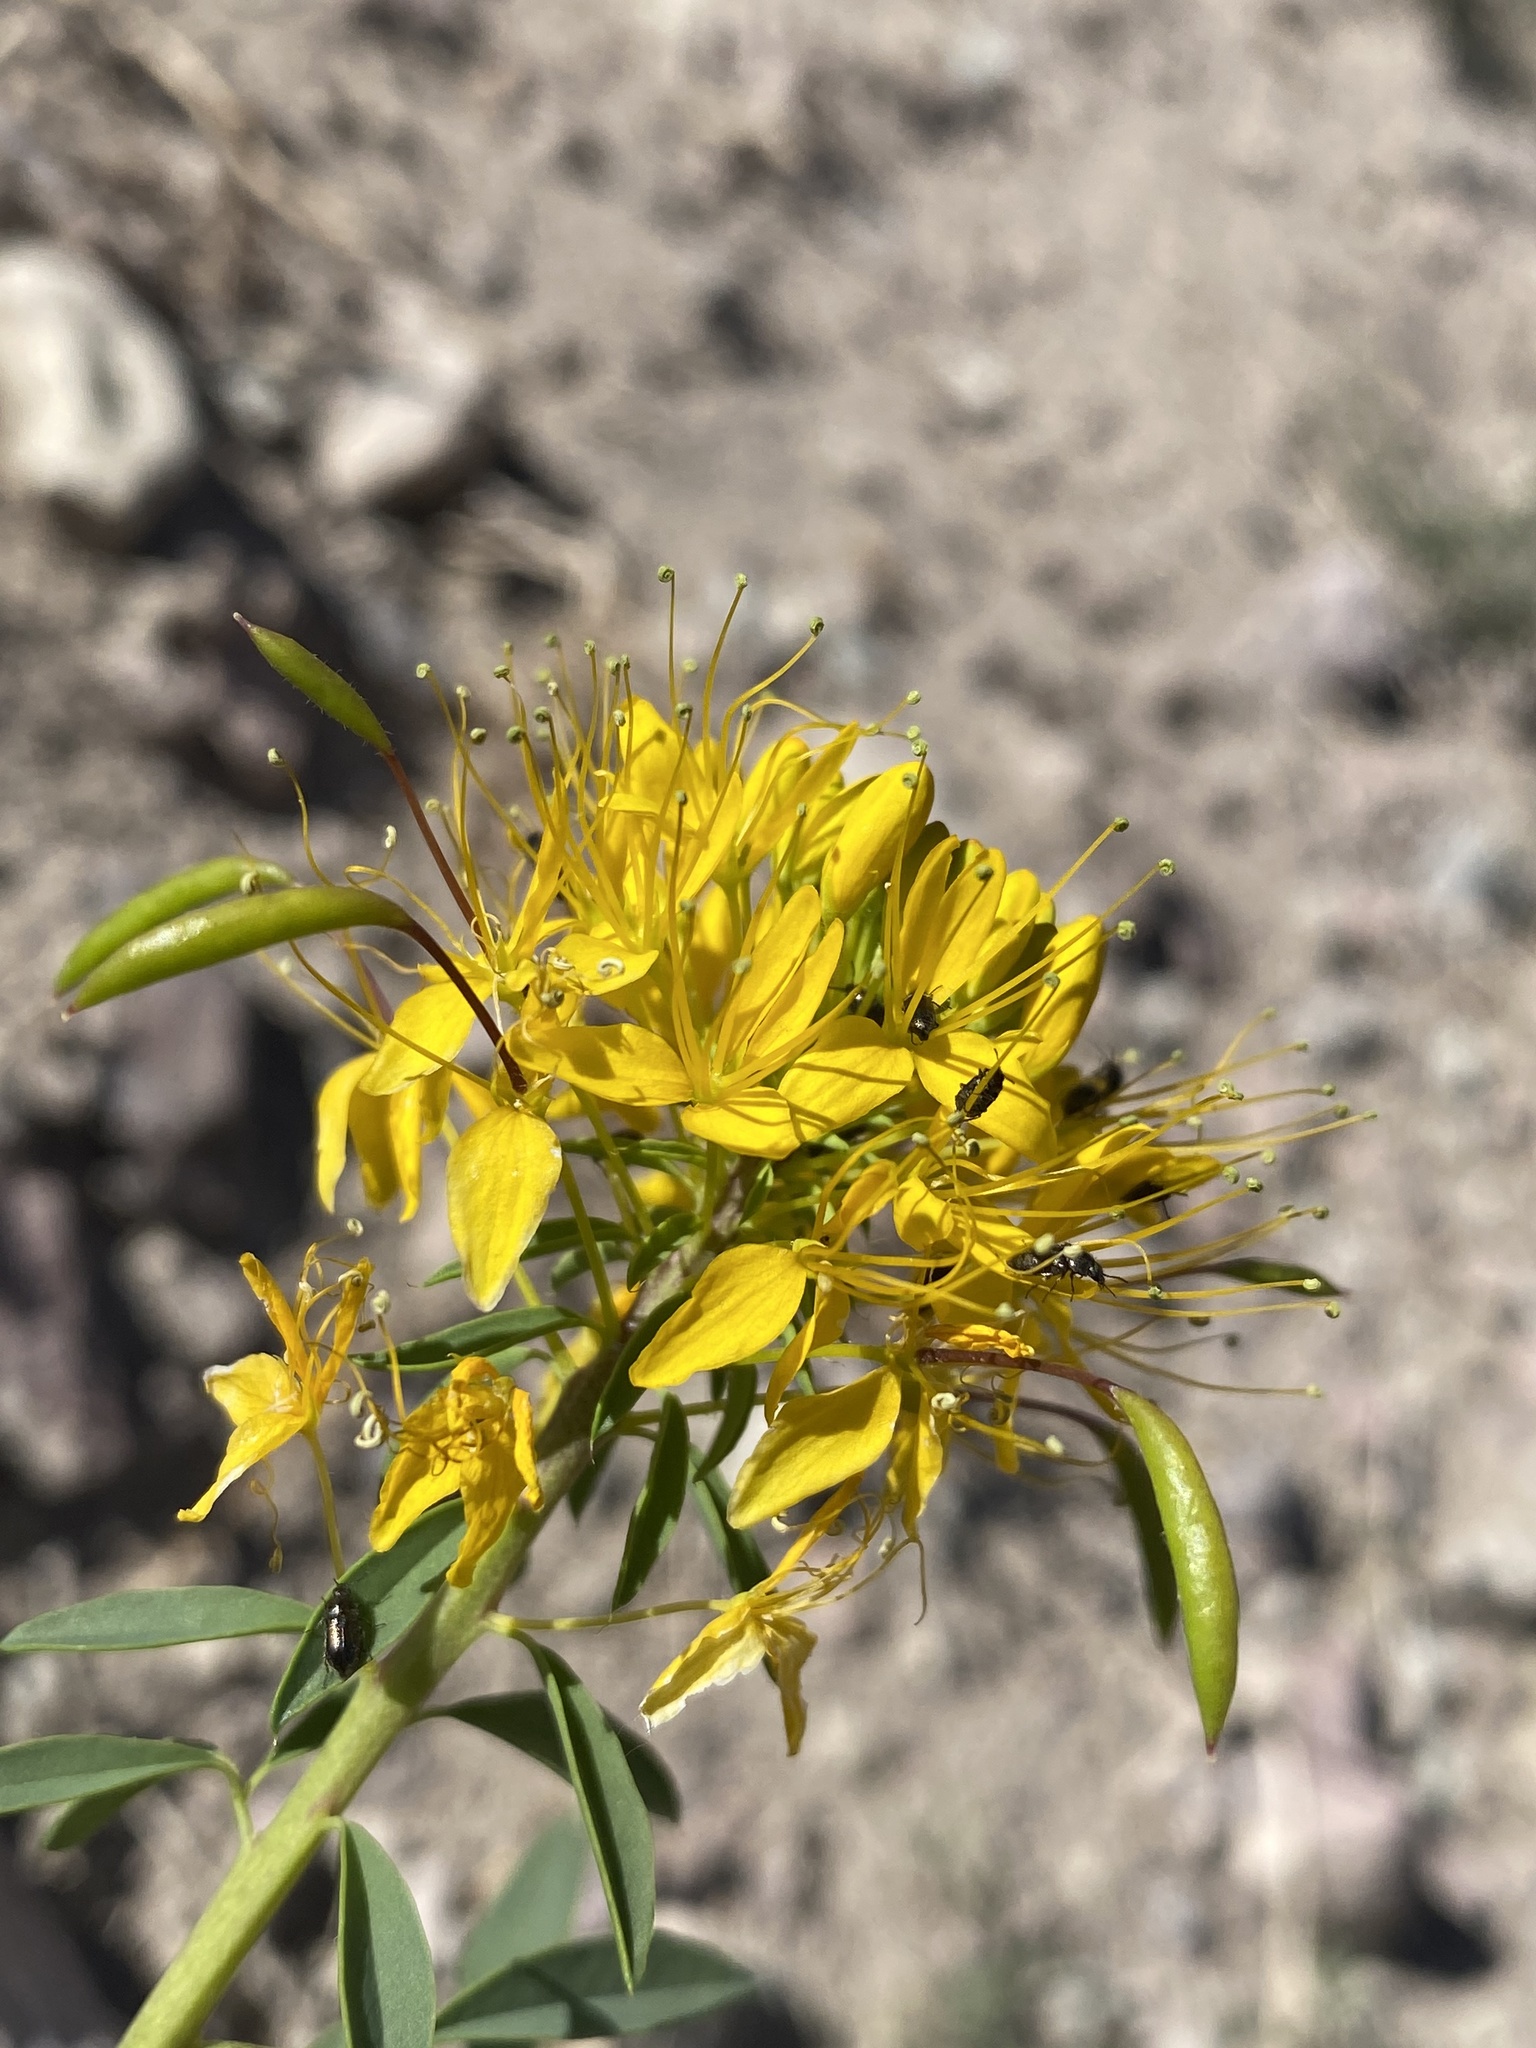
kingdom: Plantae
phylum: Tracheophyta
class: Magnoliopsida
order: Brassicales
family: Cleomaceae
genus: Cleomella
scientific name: Cleomella lutea
